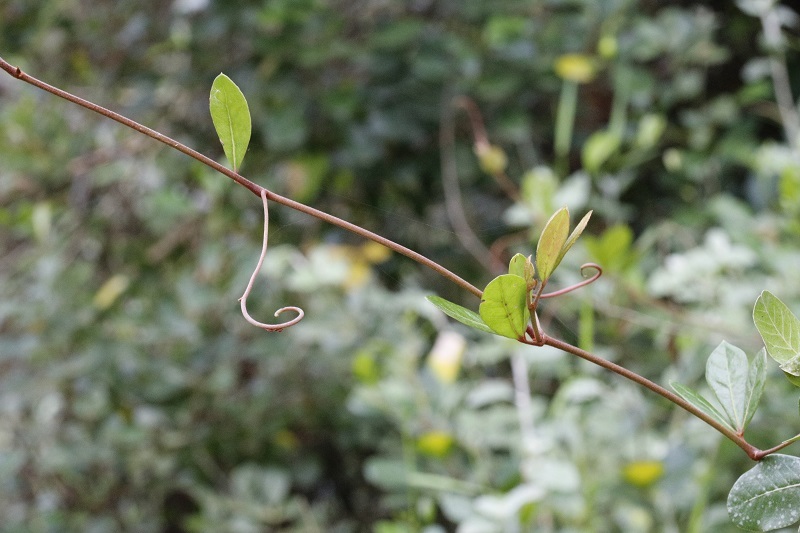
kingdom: Plantae
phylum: Tracheophyta
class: Magnoliopsida
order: Vitales
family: Vitaceae
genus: Rhoicissus
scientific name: Rhoicissus digitata
